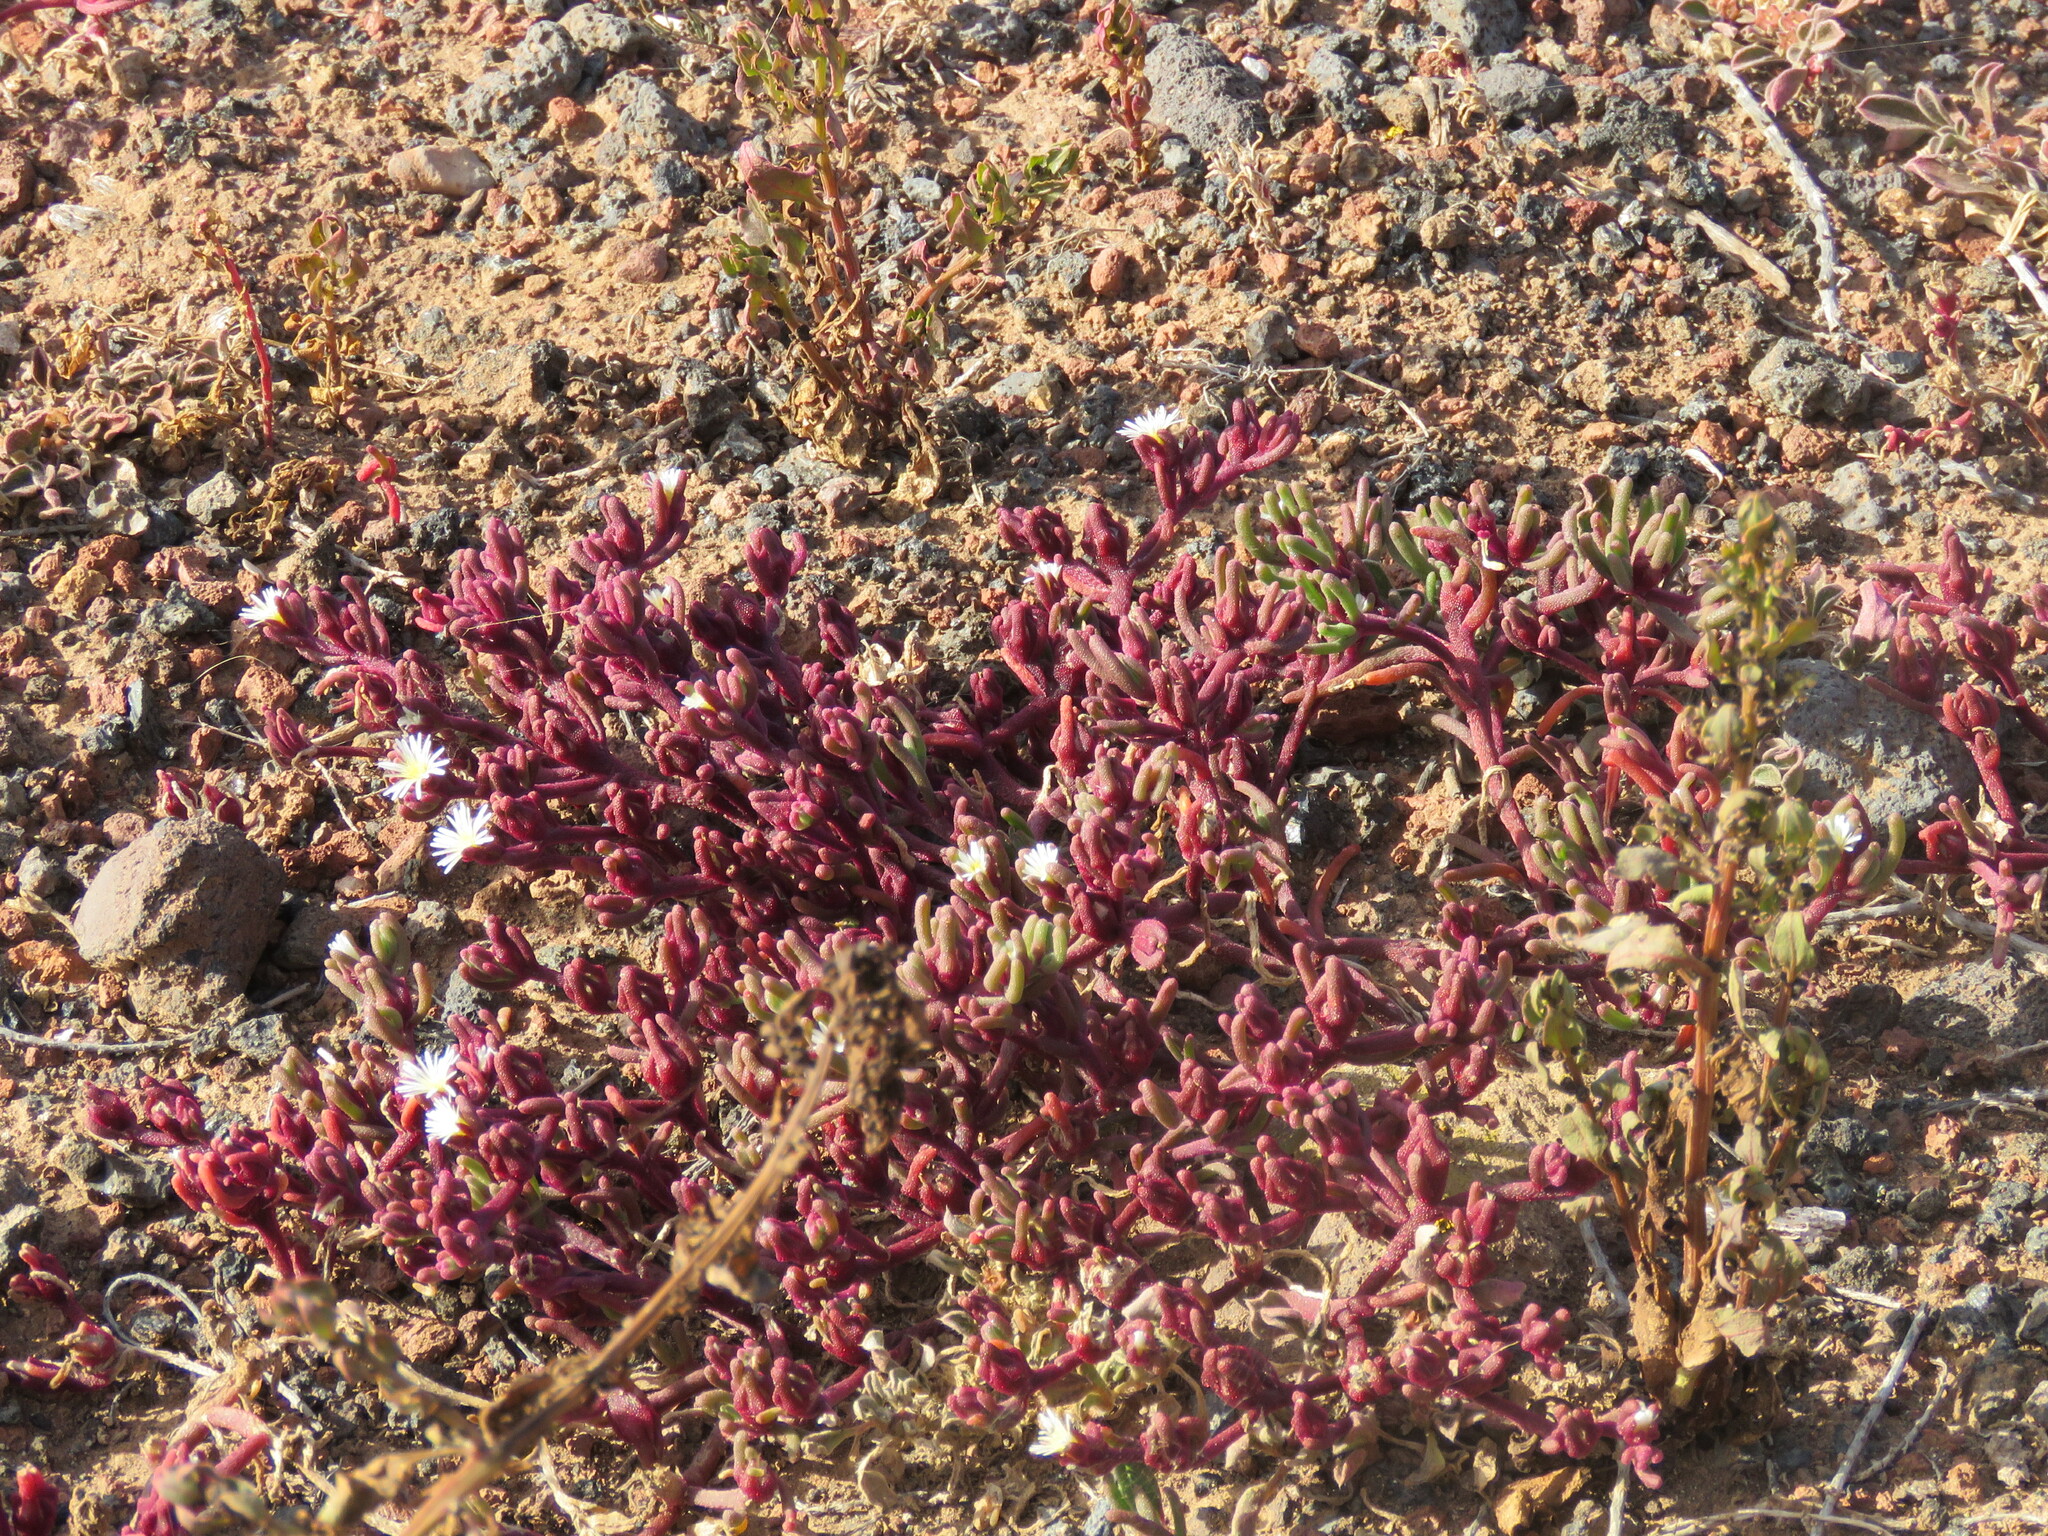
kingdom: Plantae
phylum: Tracheophyta
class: Magnoliopsida
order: Caryophyllales
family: Aizoaceae
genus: Mesembryanthemum
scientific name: Mesembryanthemum nodiflorum
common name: Slenderleaf iceplant
